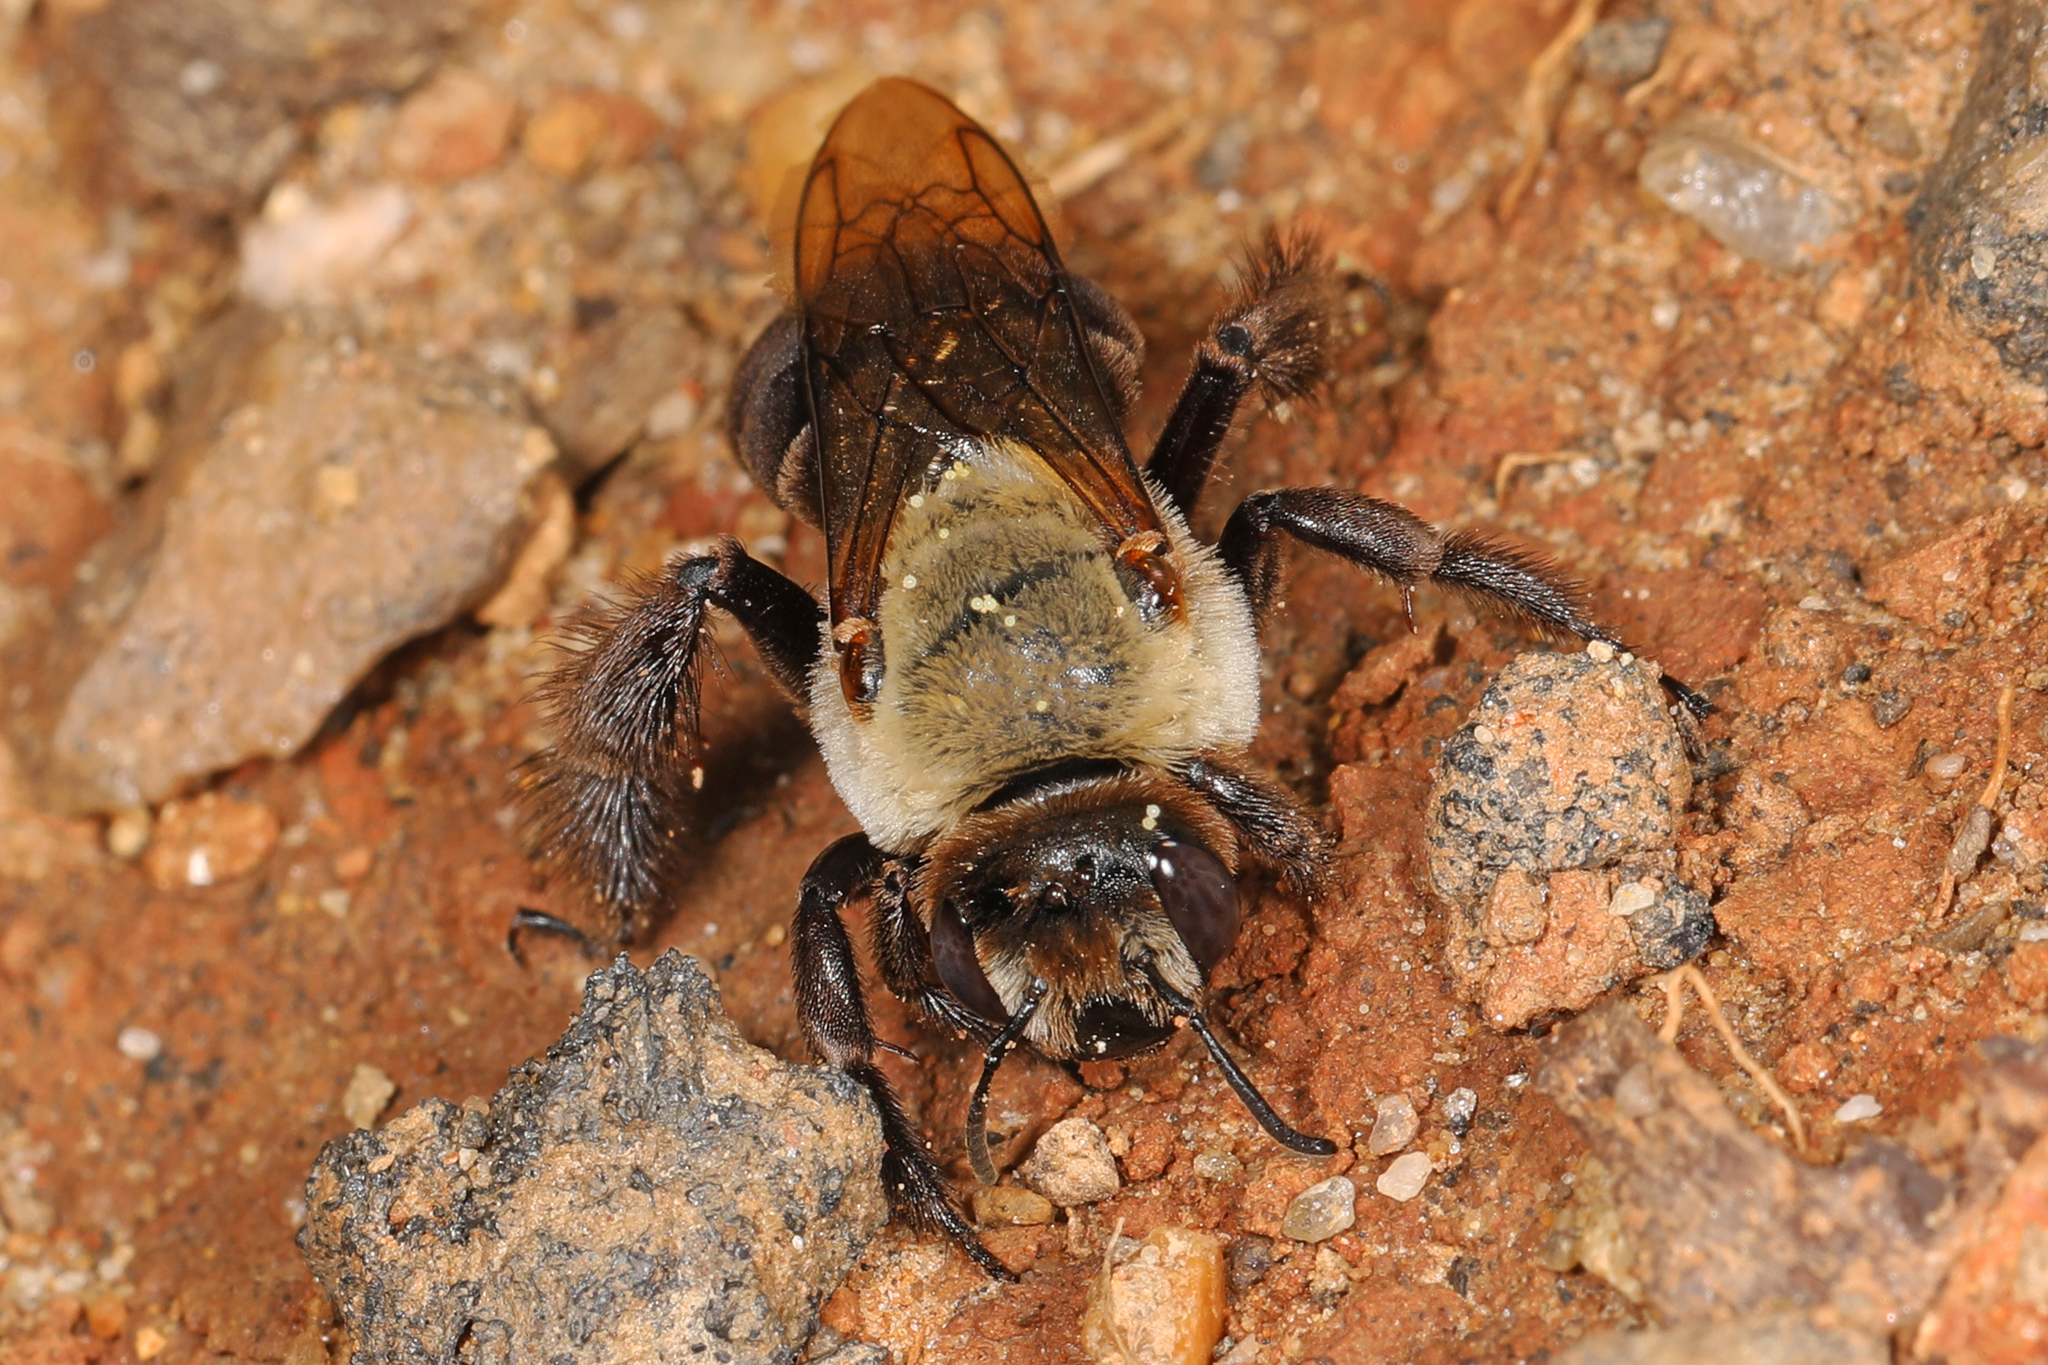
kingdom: Animalia
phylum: Arthropoda
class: Insecta
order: Hymenoptera
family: Apidae
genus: Ptilothrix
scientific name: Ptilothrix bombiformis
